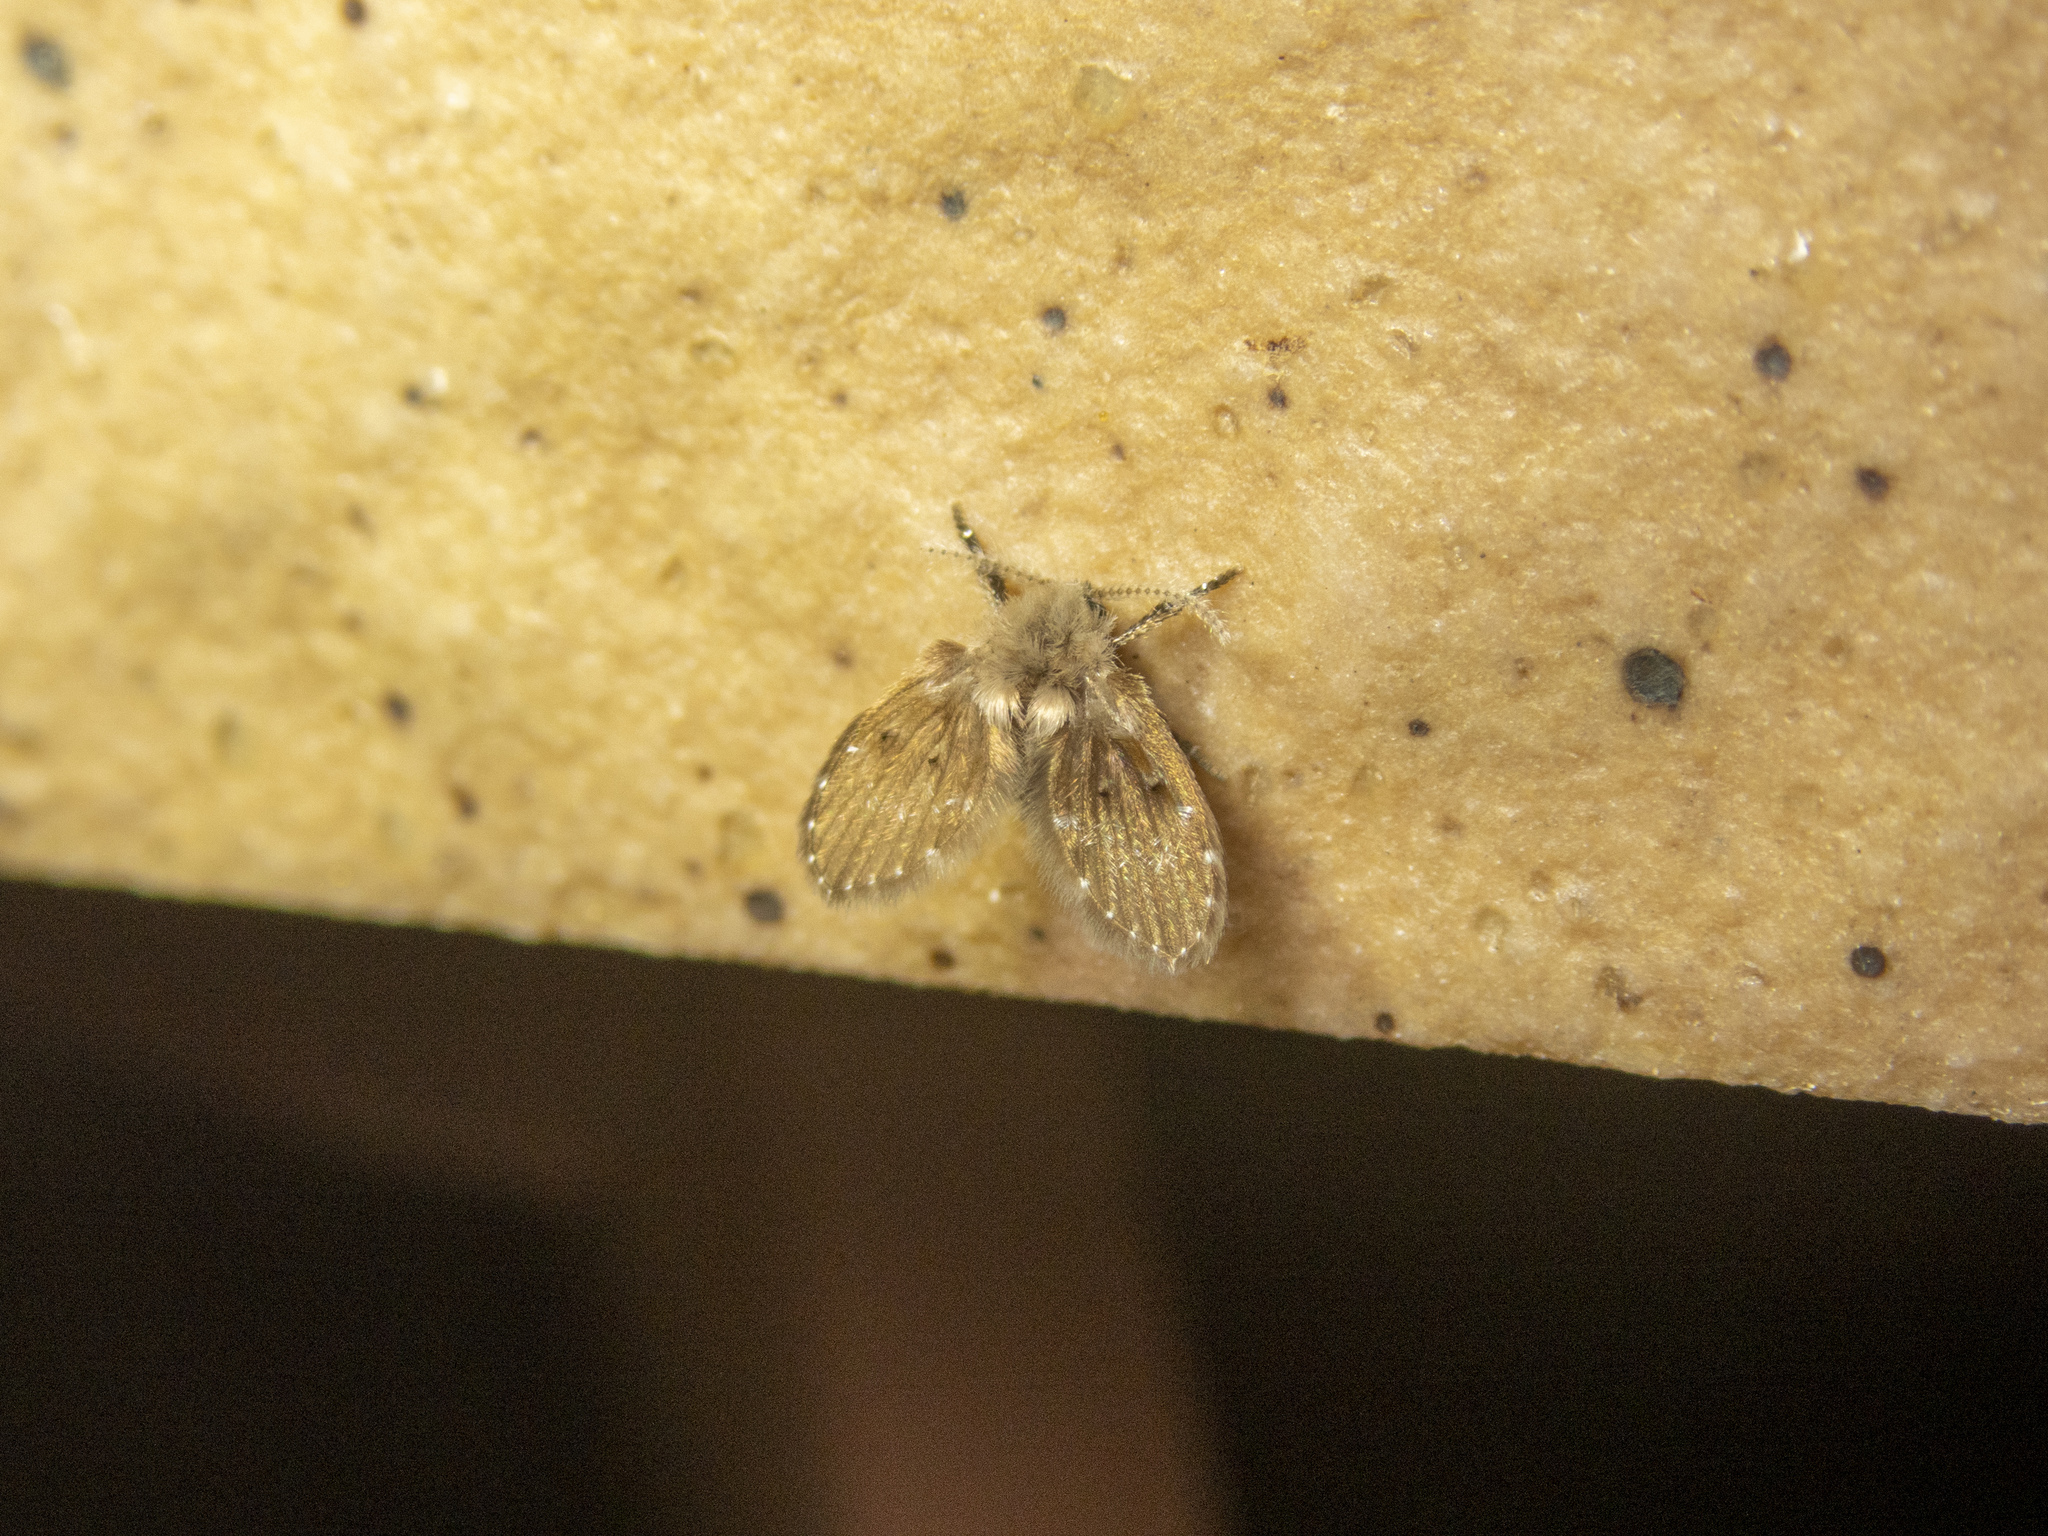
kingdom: Animalia
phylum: Arthropoda
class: Insecta
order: Diptera
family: Psychodidae
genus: Clogmia
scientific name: Clogmia albipunctatus
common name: White-spotted moth fly
